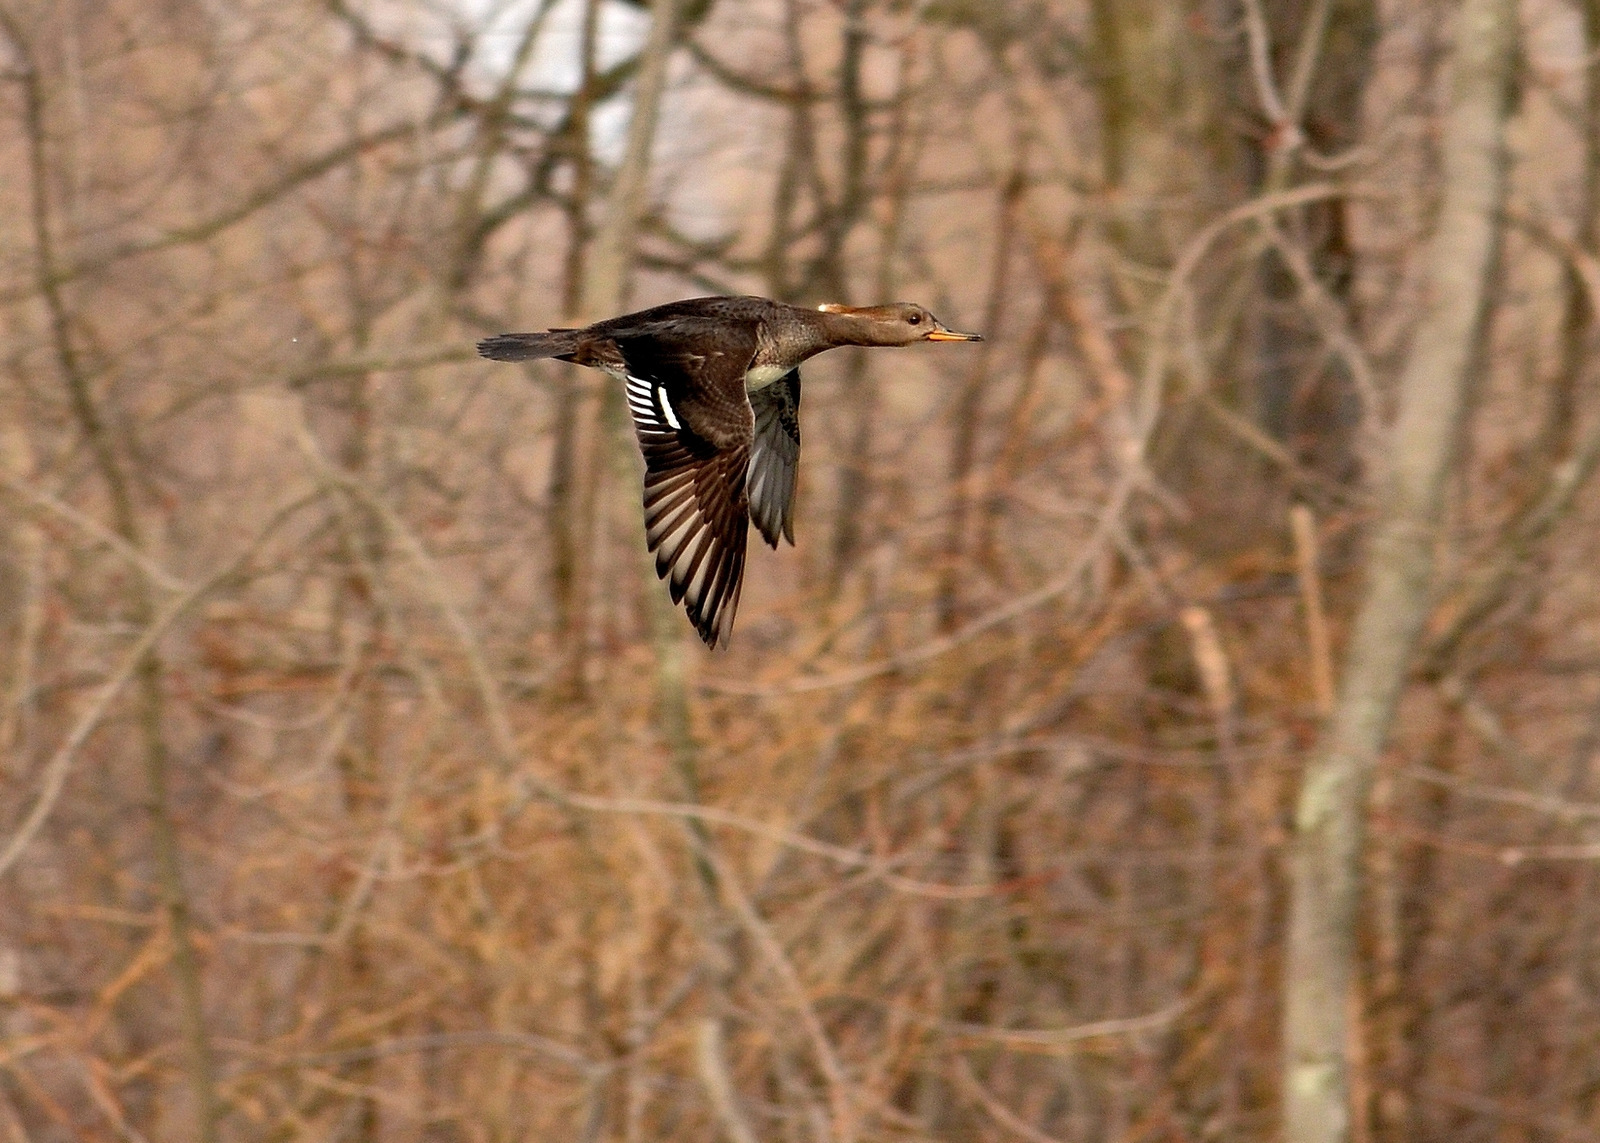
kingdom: Animalia
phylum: Chordata
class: Aves
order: Anseriformes
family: Anatidae
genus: Lophodytes
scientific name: Lophodytes cucullatus
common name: Hooded merganser
